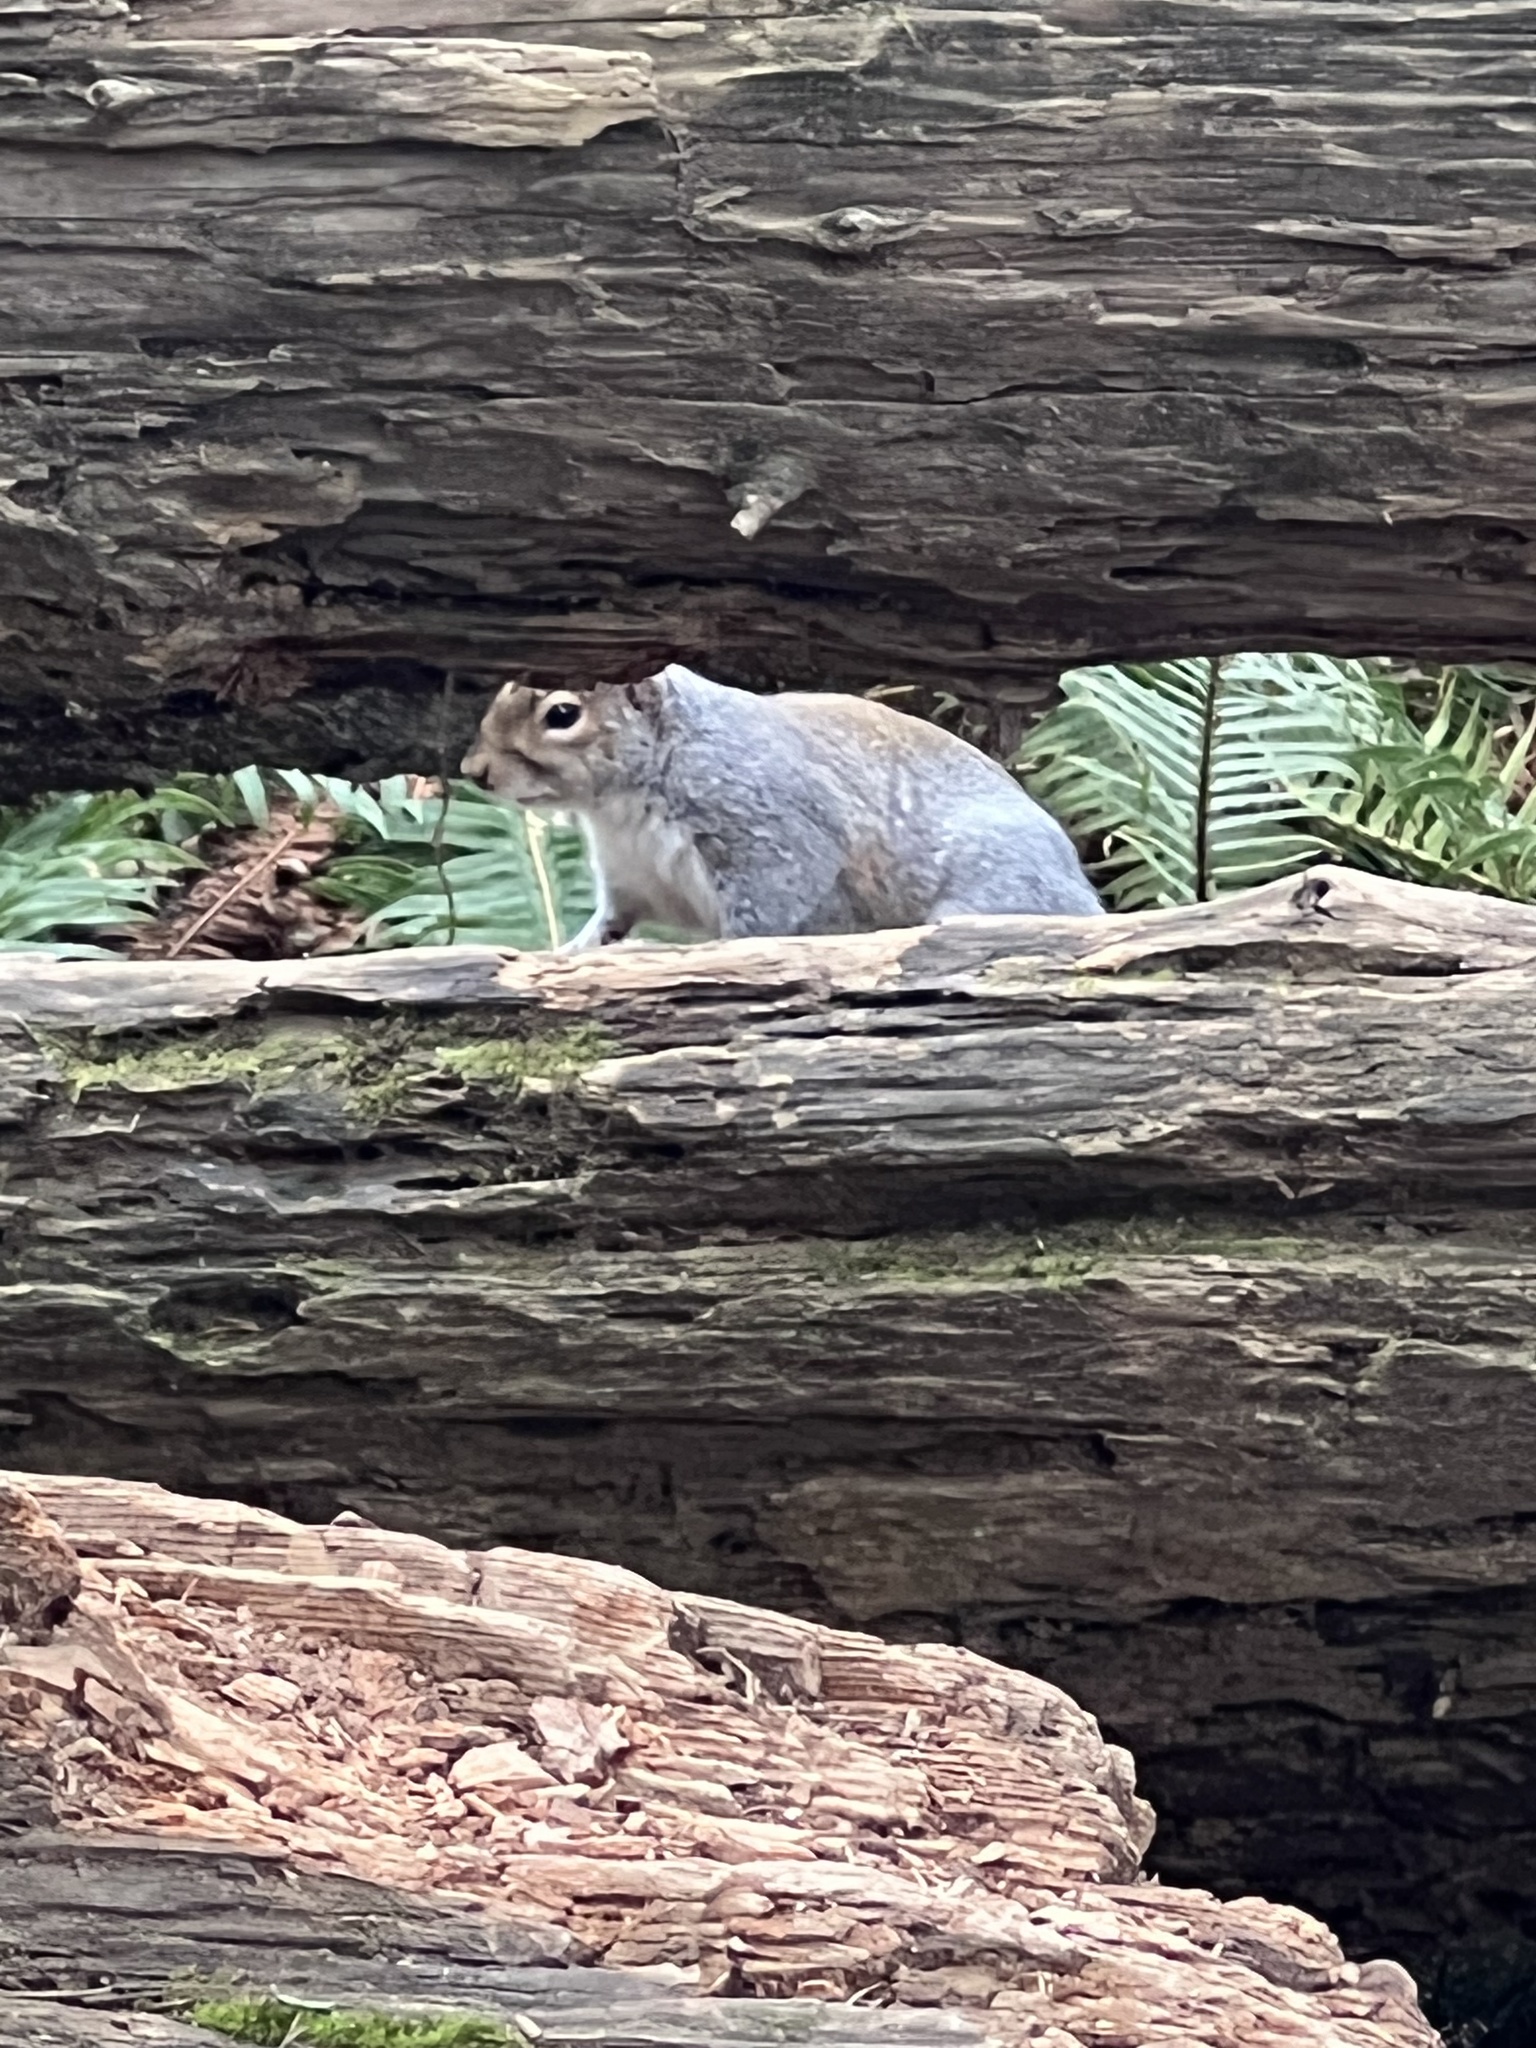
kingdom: Animalia
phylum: Chordata
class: Mammalia
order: Rodentia
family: Sciuridae
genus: Sciurus
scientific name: Sciurus carolinensis
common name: Eastern gray squirrel
